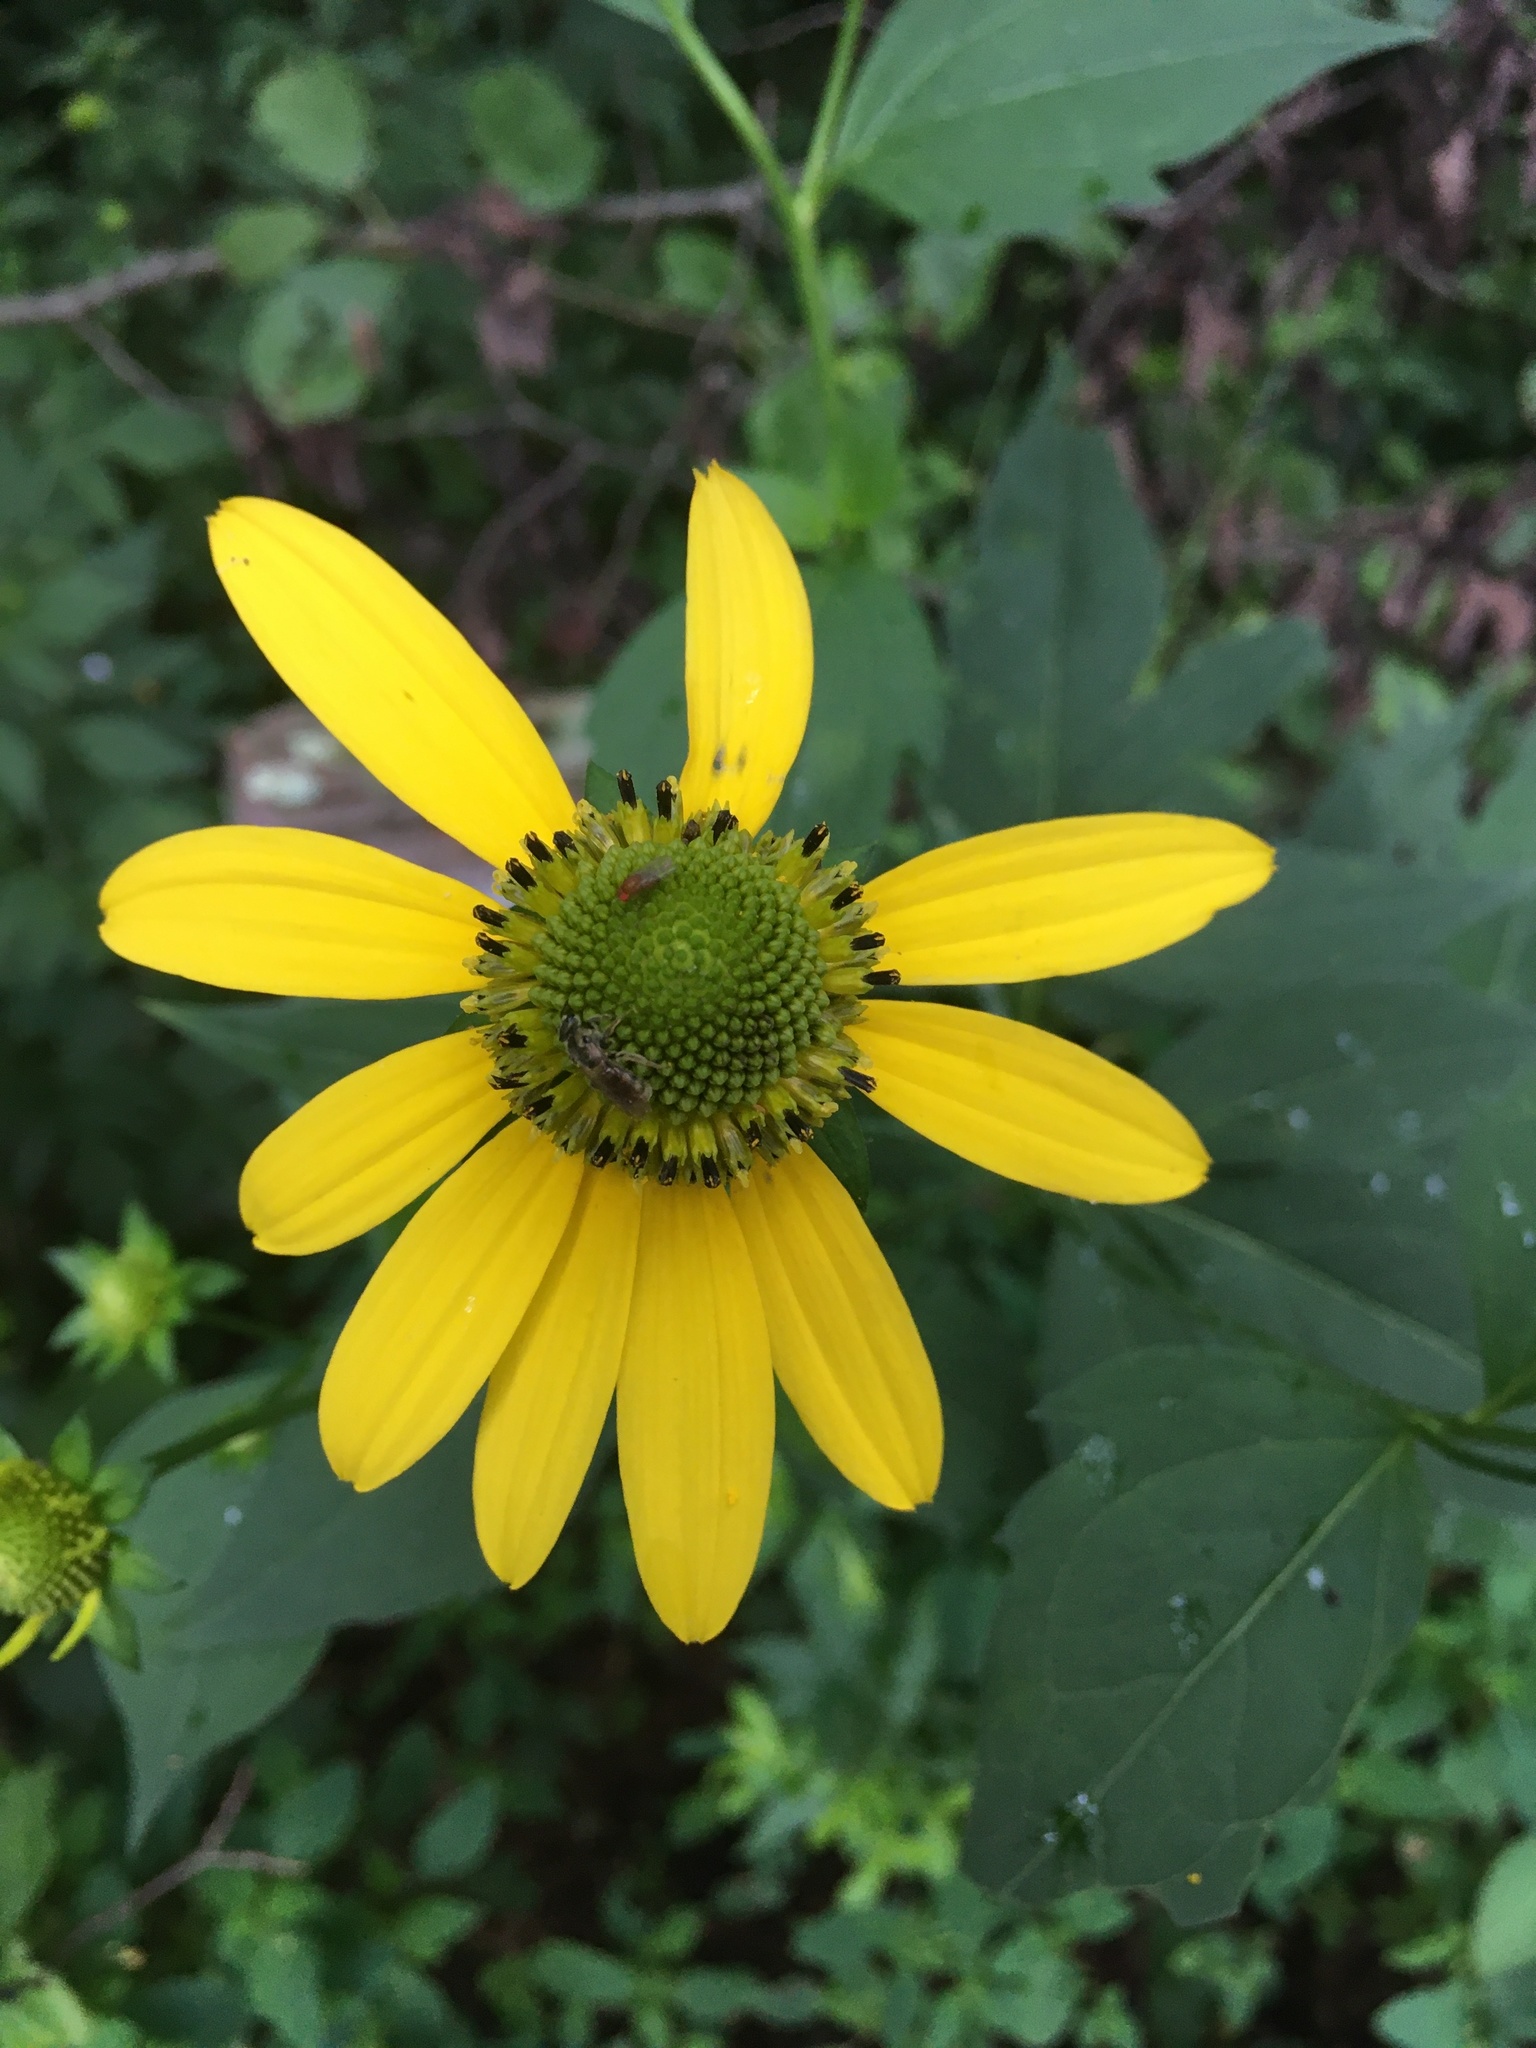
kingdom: Plantae
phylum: Tracheophyta
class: Magnoliopsida
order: Asterales
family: Asteraceae
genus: Rudbeckia
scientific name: Rudbeckia laciniata
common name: Coneflower
